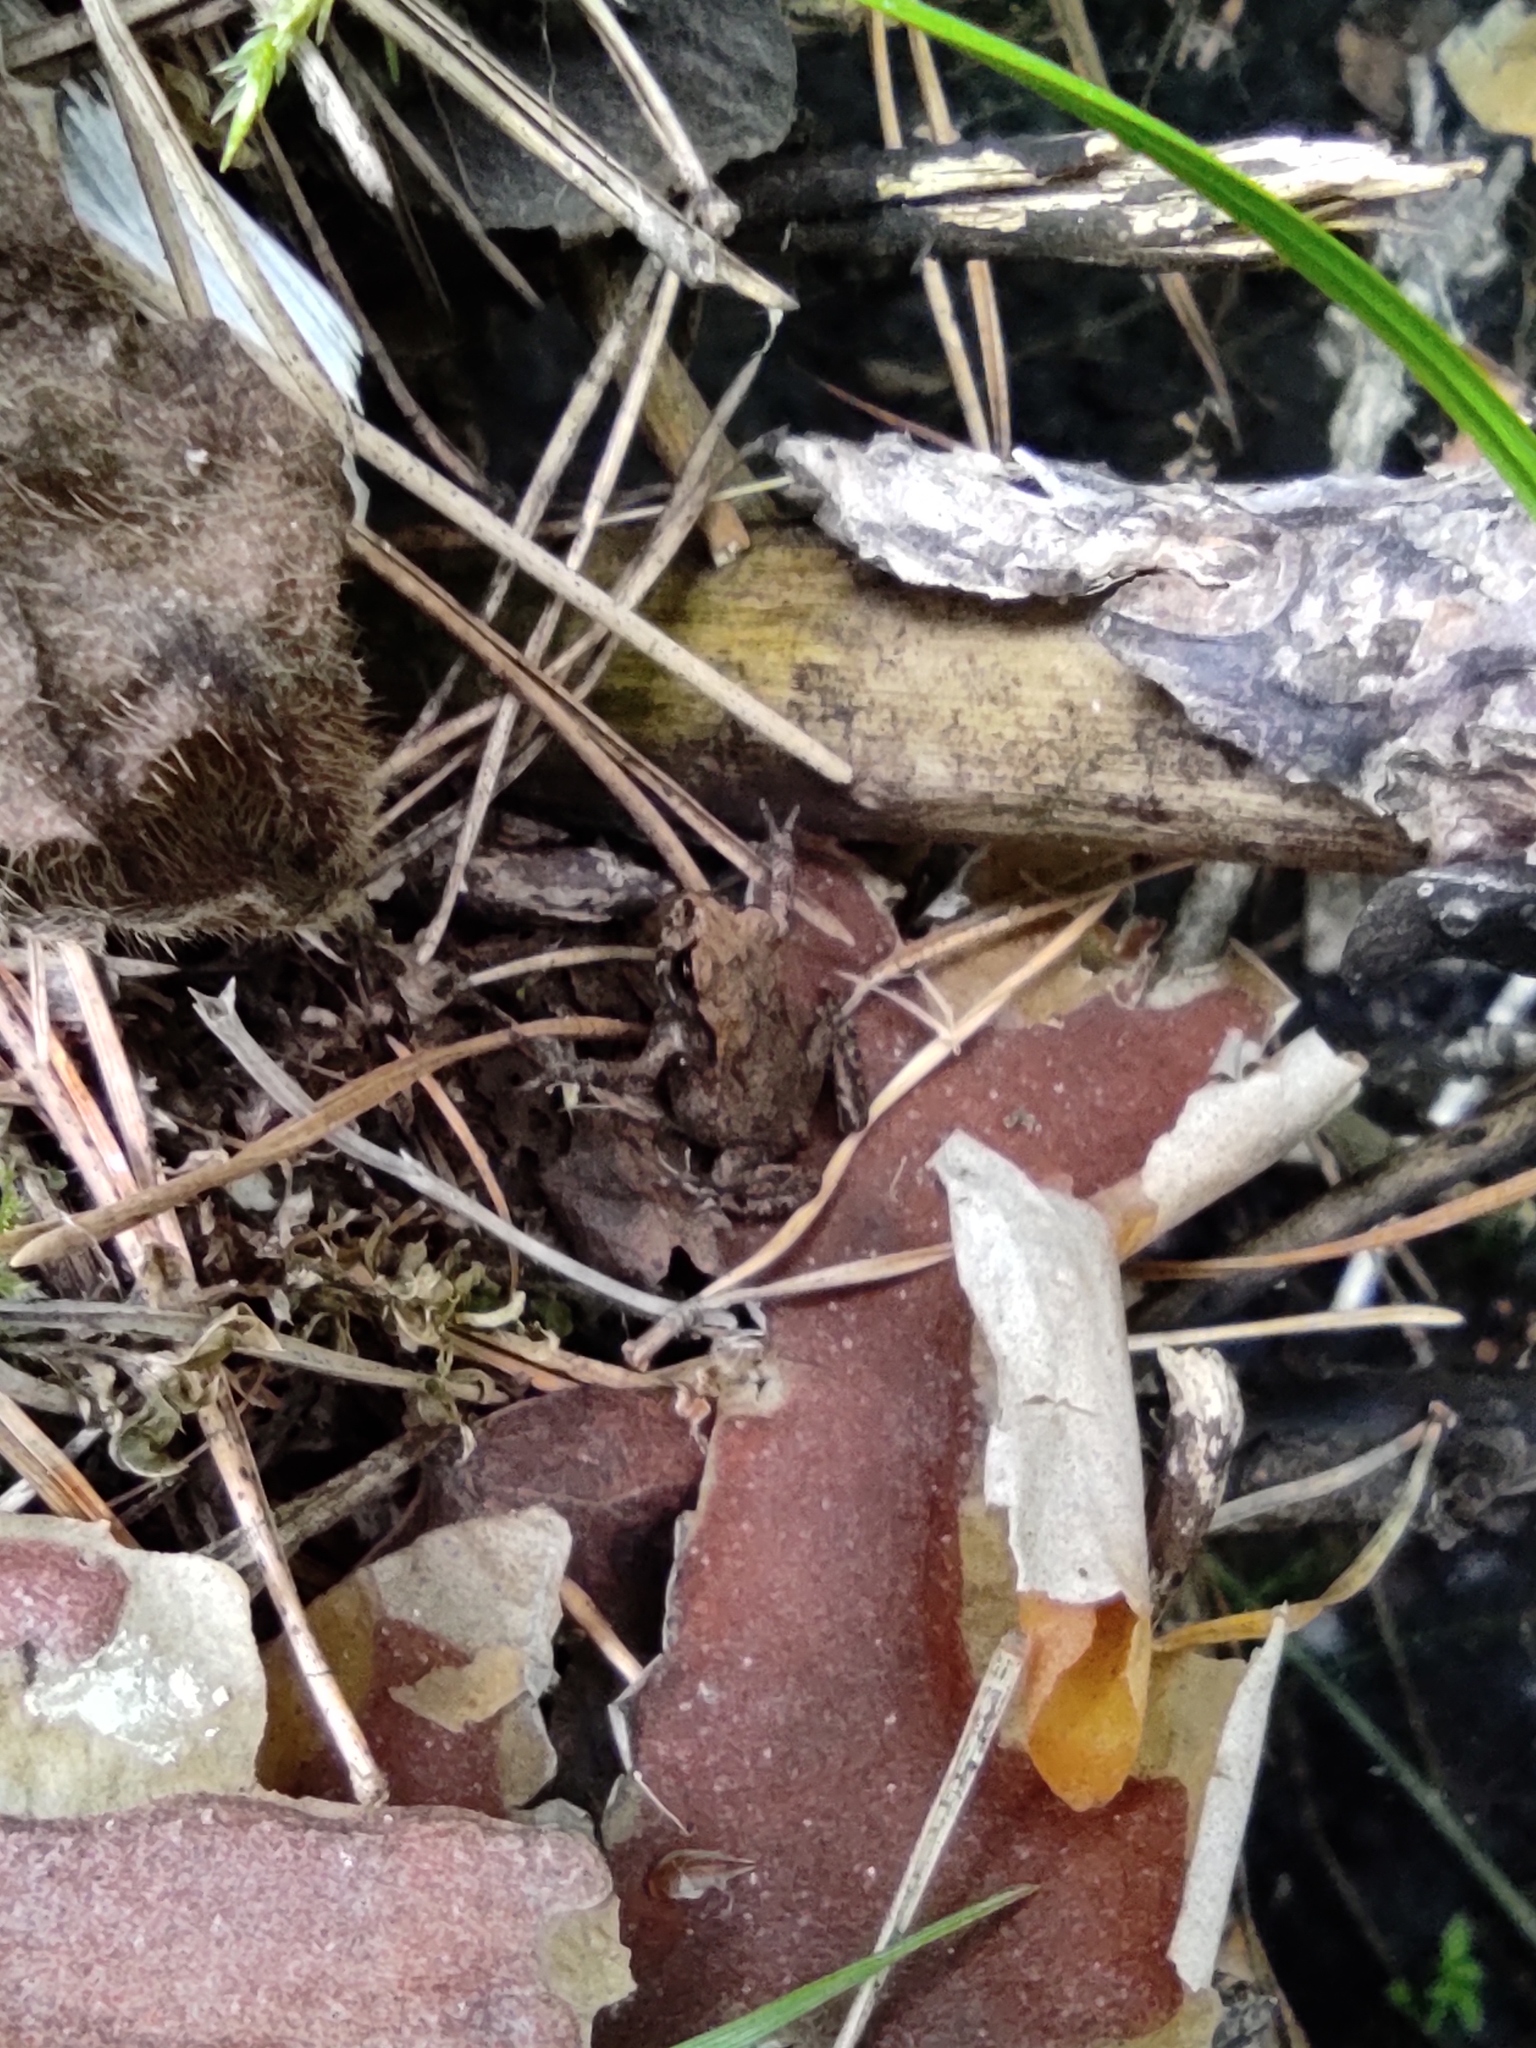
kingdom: Animalia
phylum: Chordata
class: Amphibia
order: Anura
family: Bufonidae
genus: Bufo
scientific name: Bufo bufo
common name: Common toad
